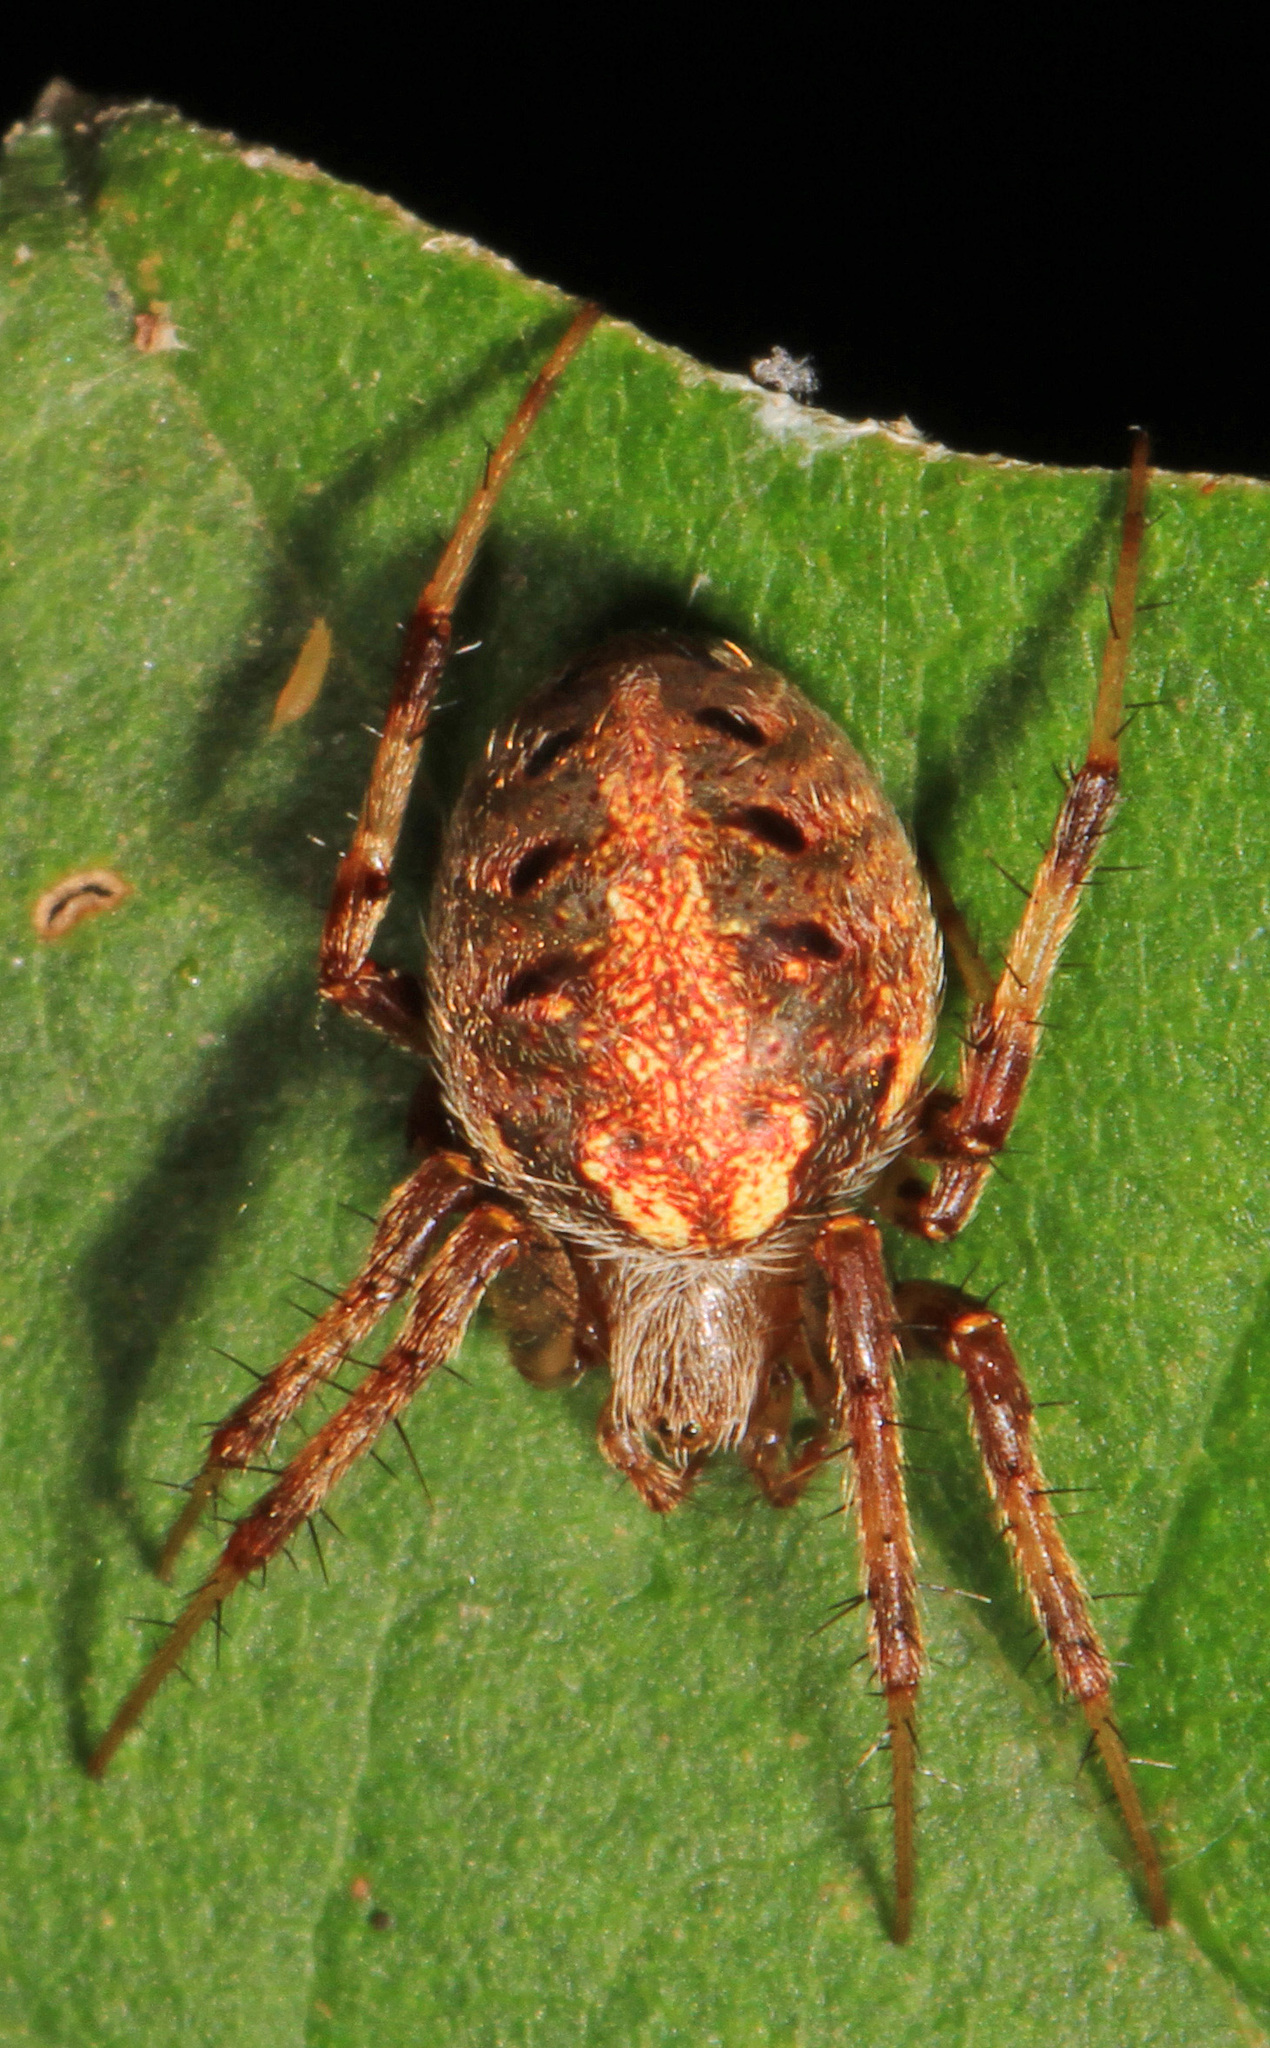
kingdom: Animalia
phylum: Arthropoda
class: Arachnida
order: Araneae
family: Araneidae
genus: Neoscona
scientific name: Neoscona arabesca
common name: Orb weavers
